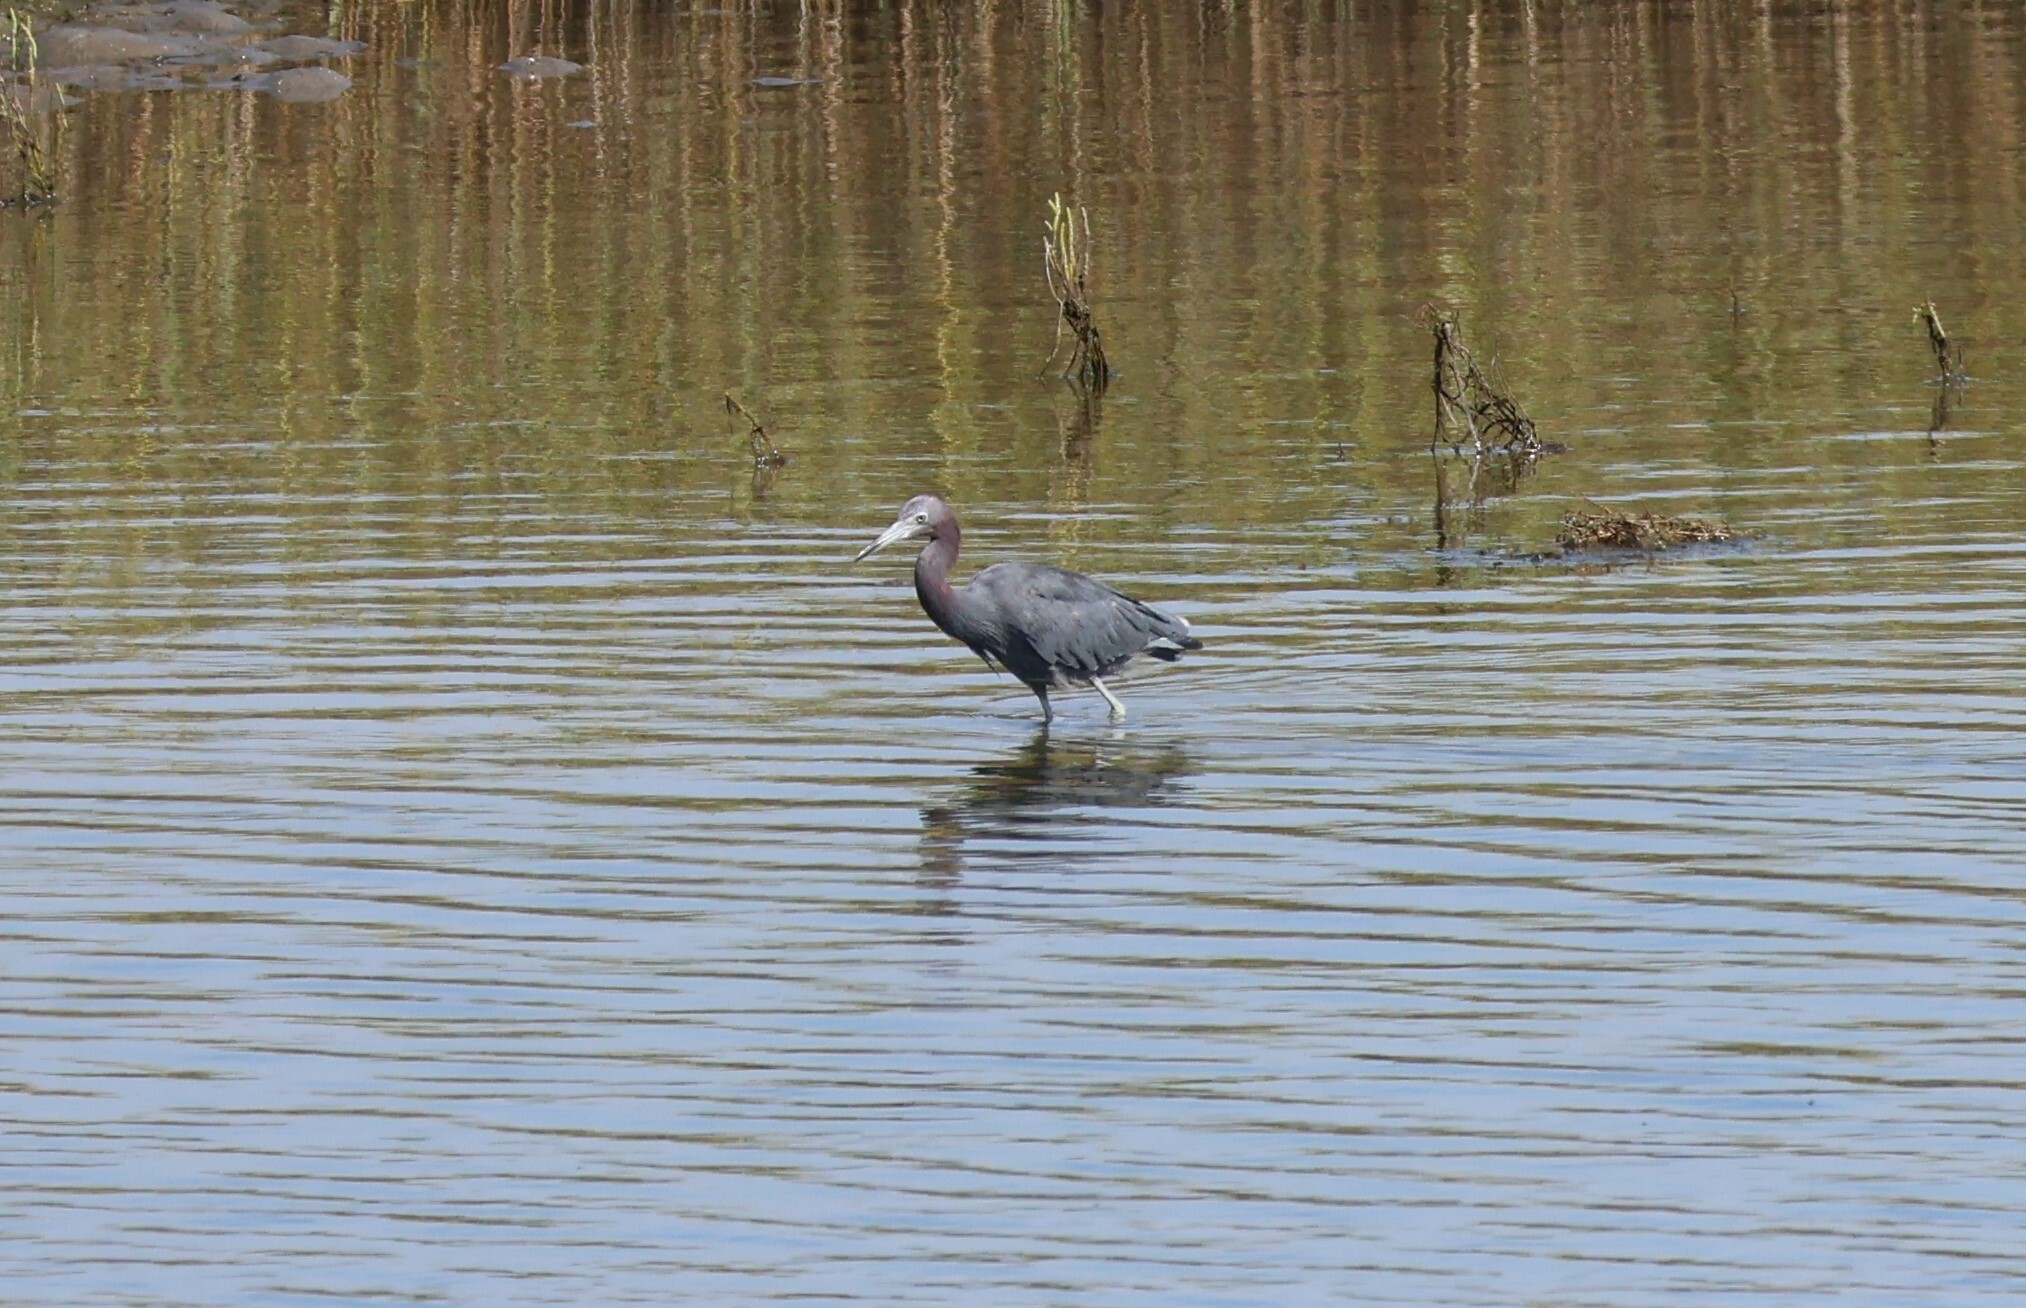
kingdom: Animalia
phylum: Chordata
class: Aves
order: Pelecaniformes
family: Ardeidae
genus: Egretta
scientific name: Egretta caerulea
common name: Little blue heron
